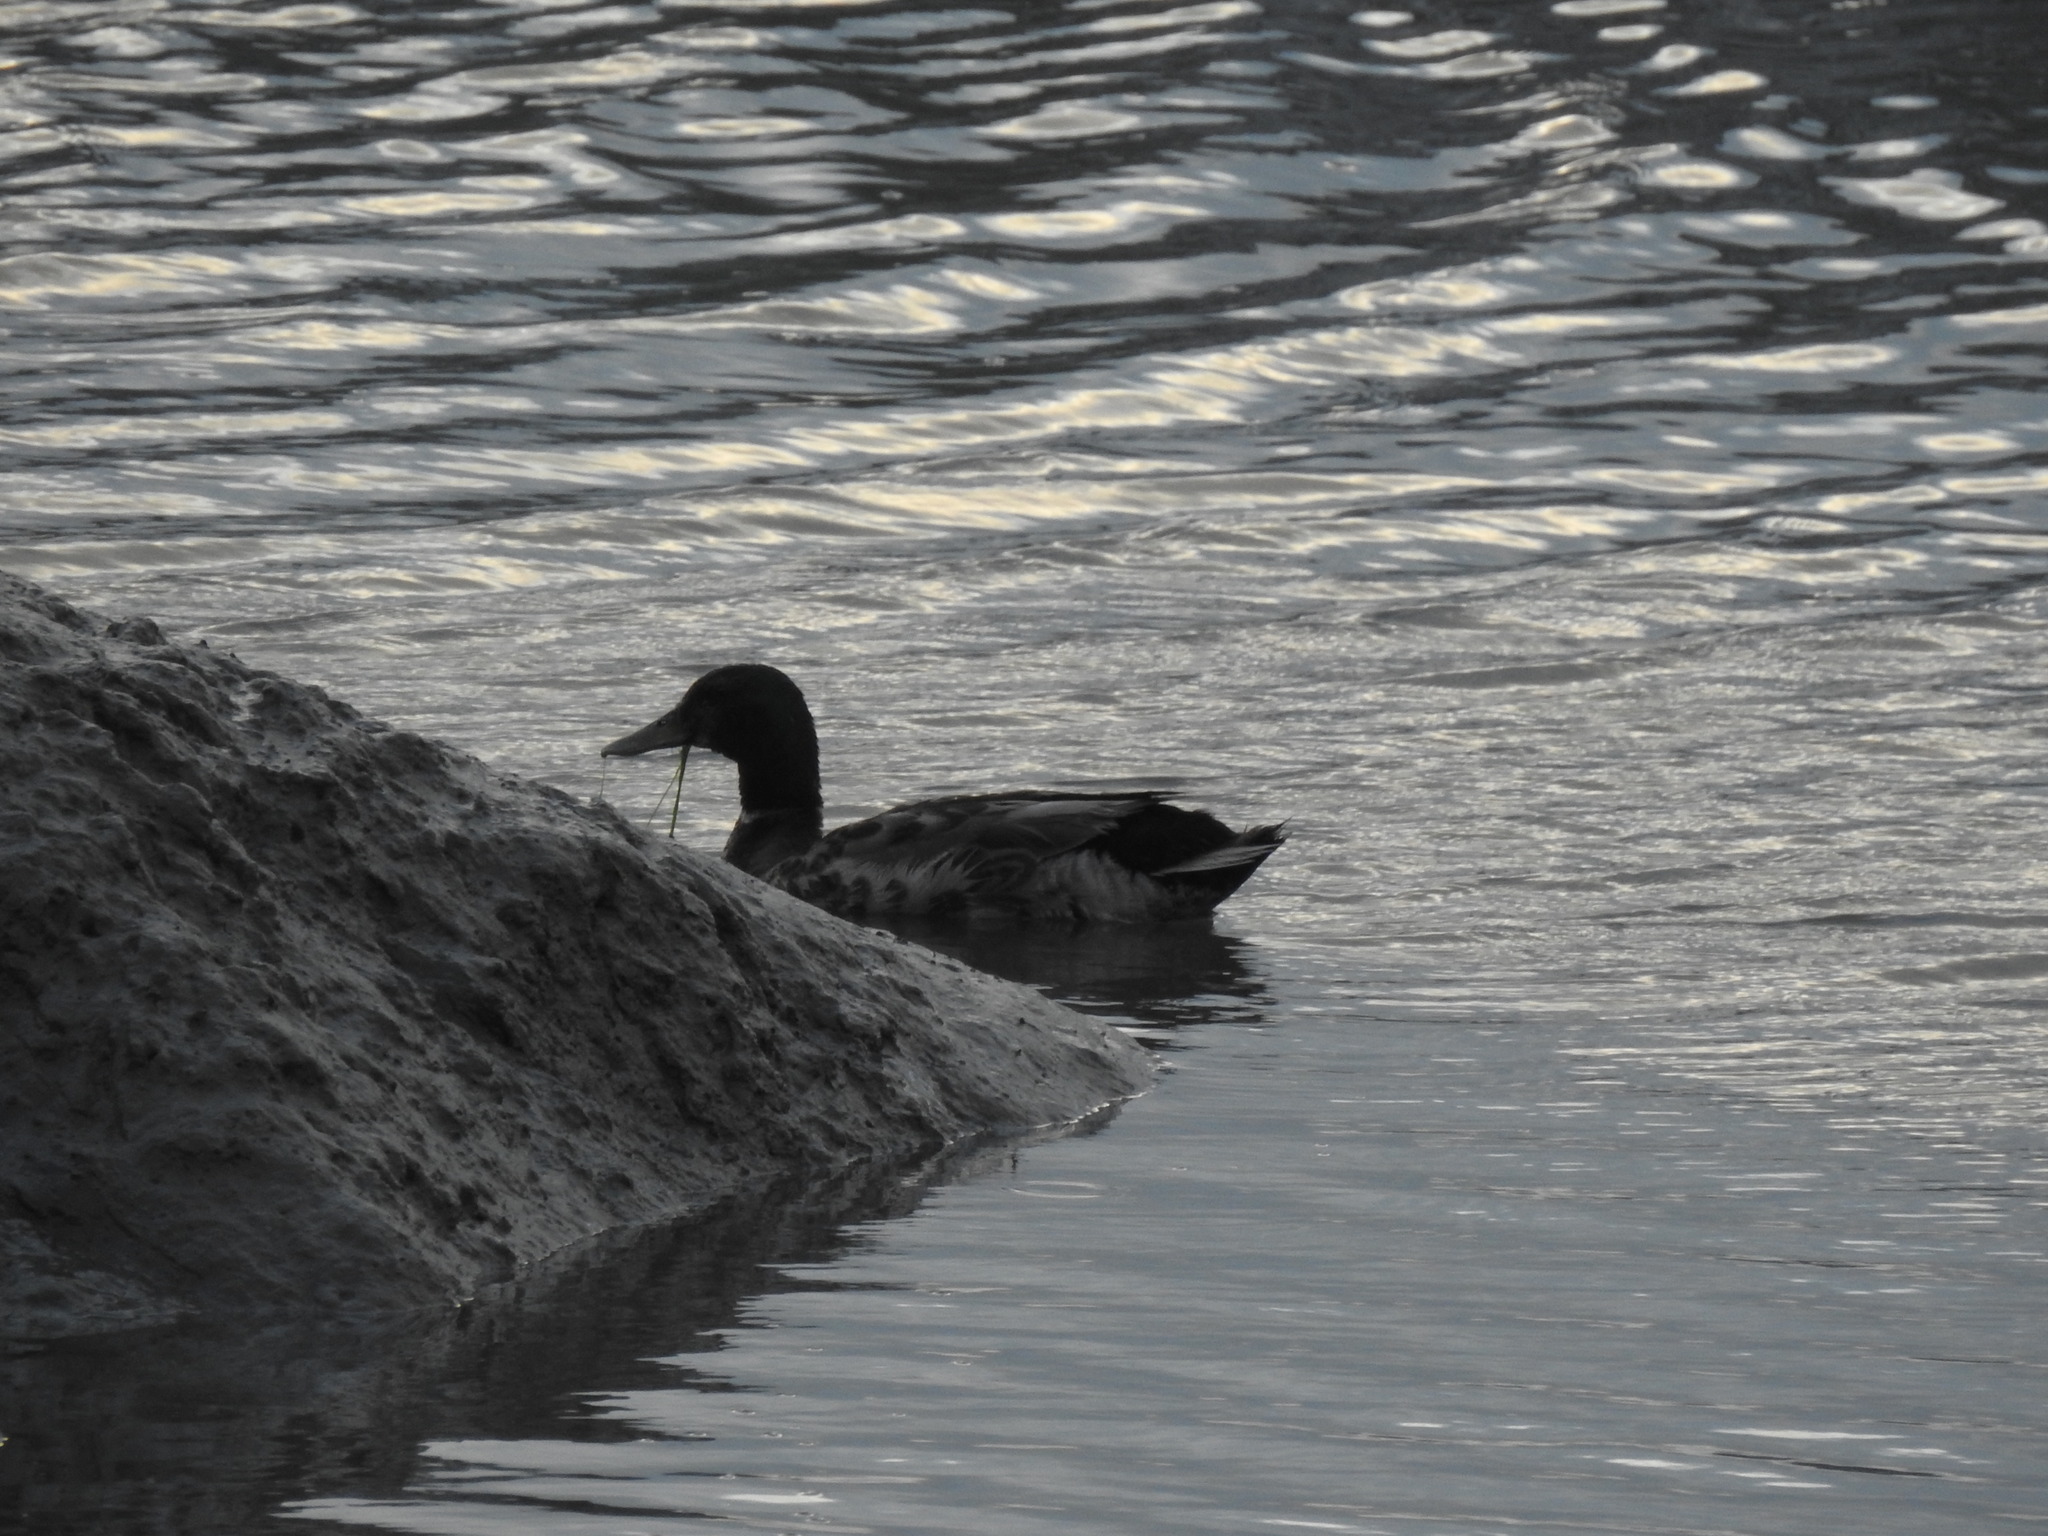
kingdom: Animalia
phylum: Chordata
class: Aves
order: Anseriformes
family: Anatidae
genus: Anas
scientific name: Anas platyrhynchos
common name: Mallard
